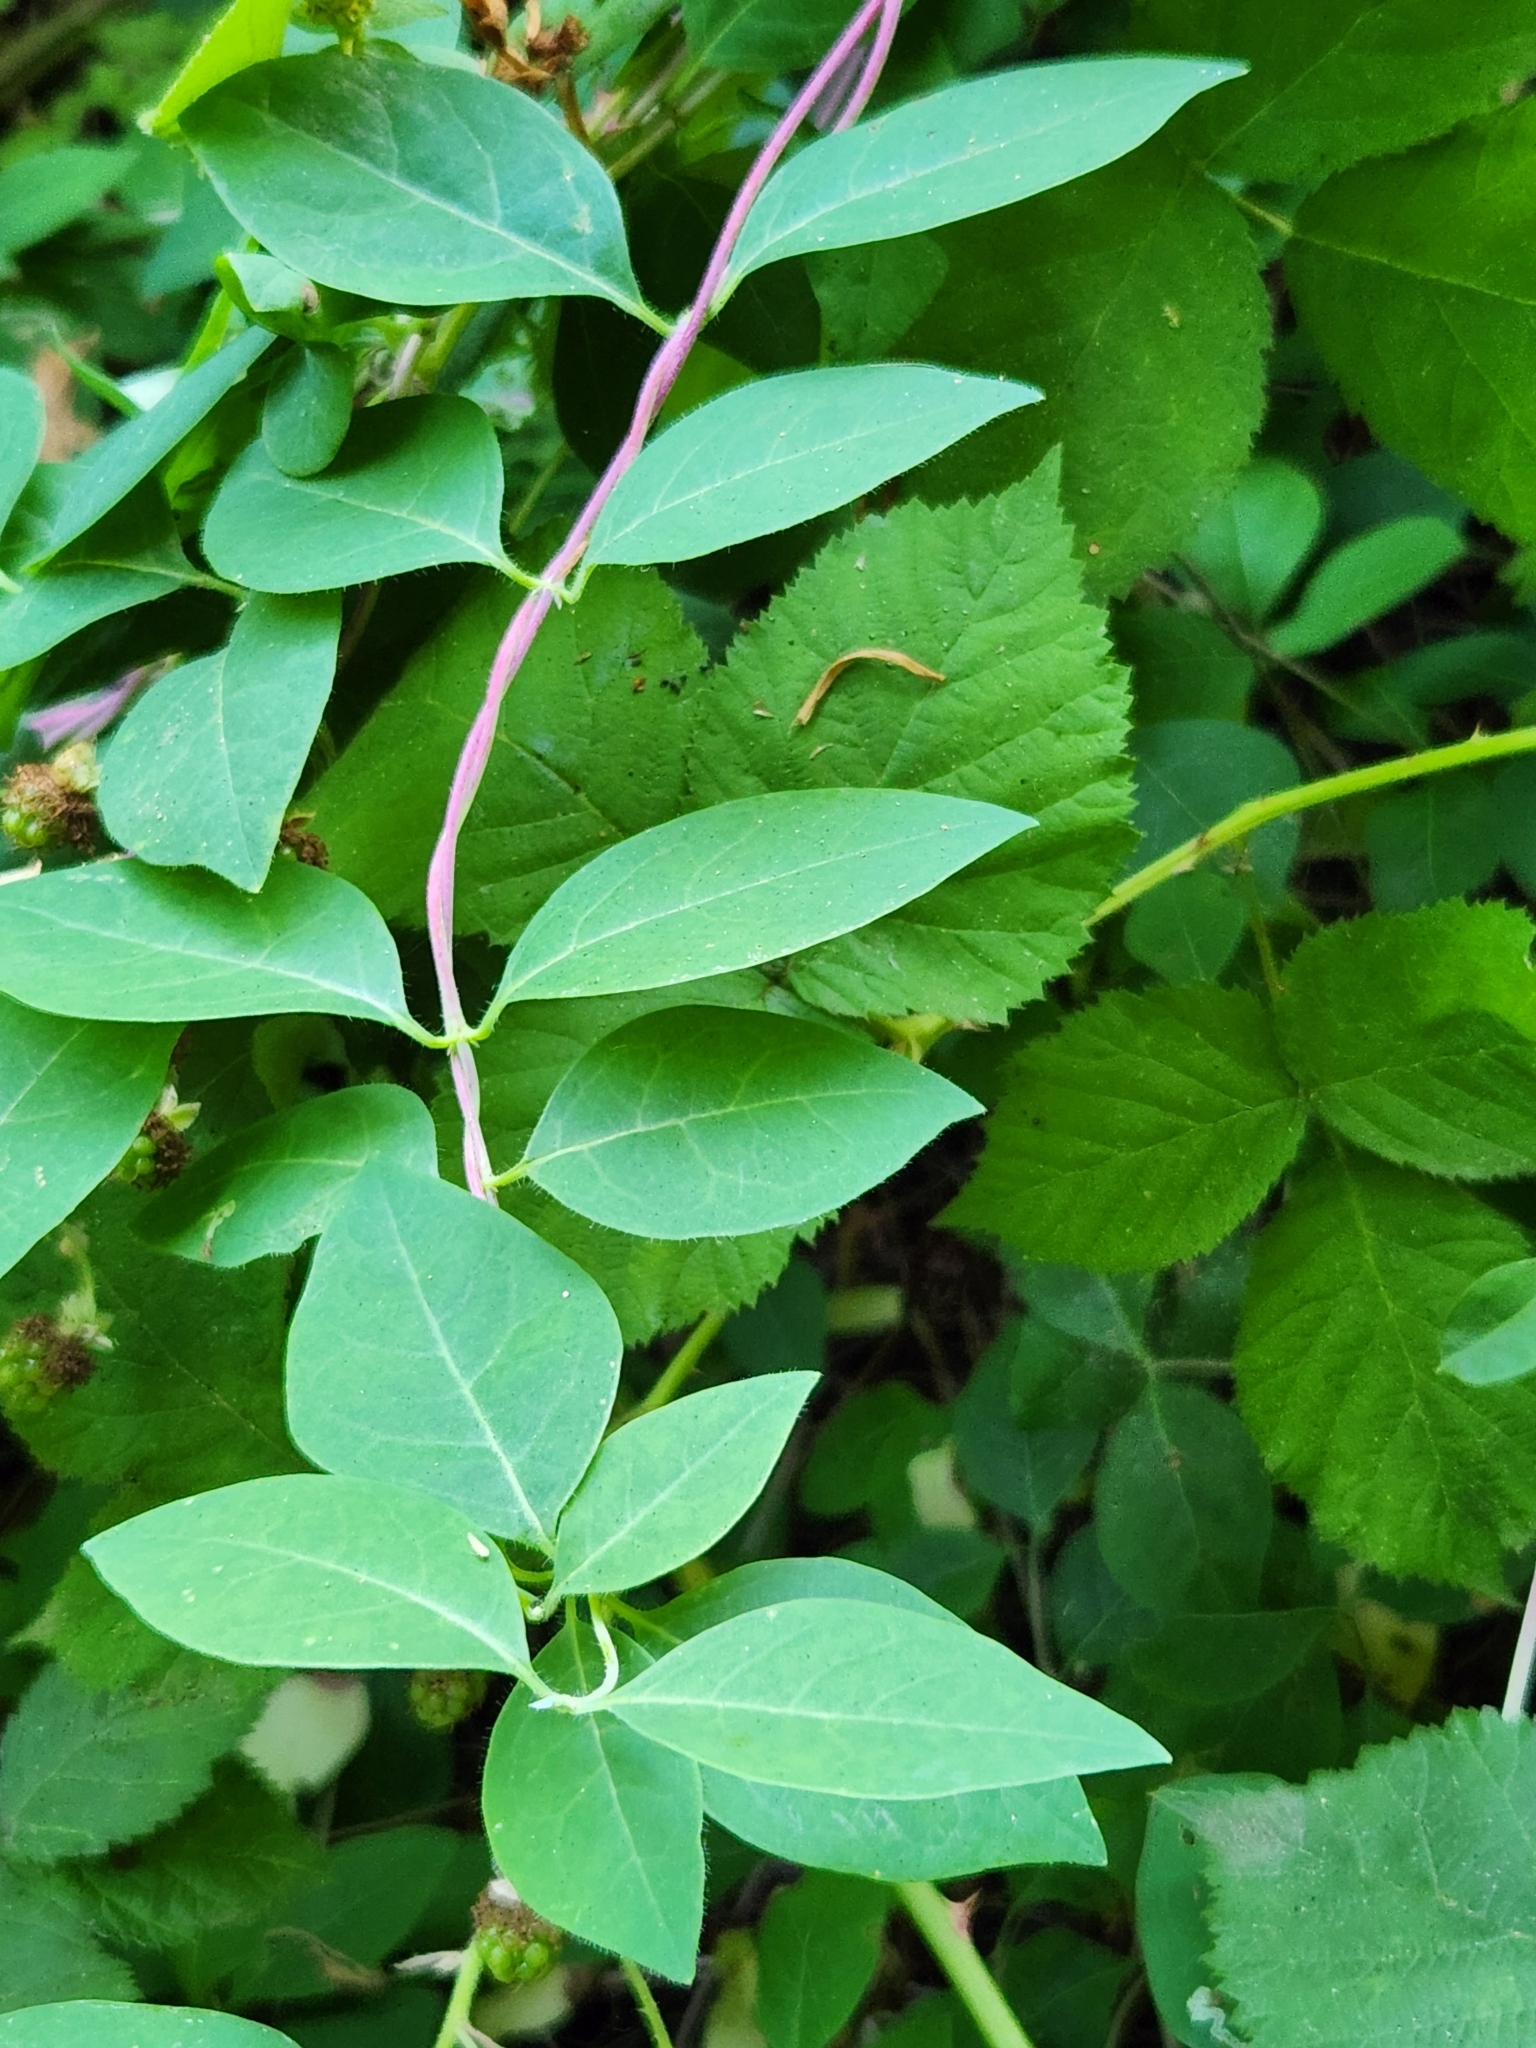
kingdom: Plantae
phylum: Tracheophyta
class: Magnoliopsida
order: Dipsacales
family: Caprifoliaceae
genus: Lonicera
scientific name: Lonicera periclymenum
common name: European honeysuckle
